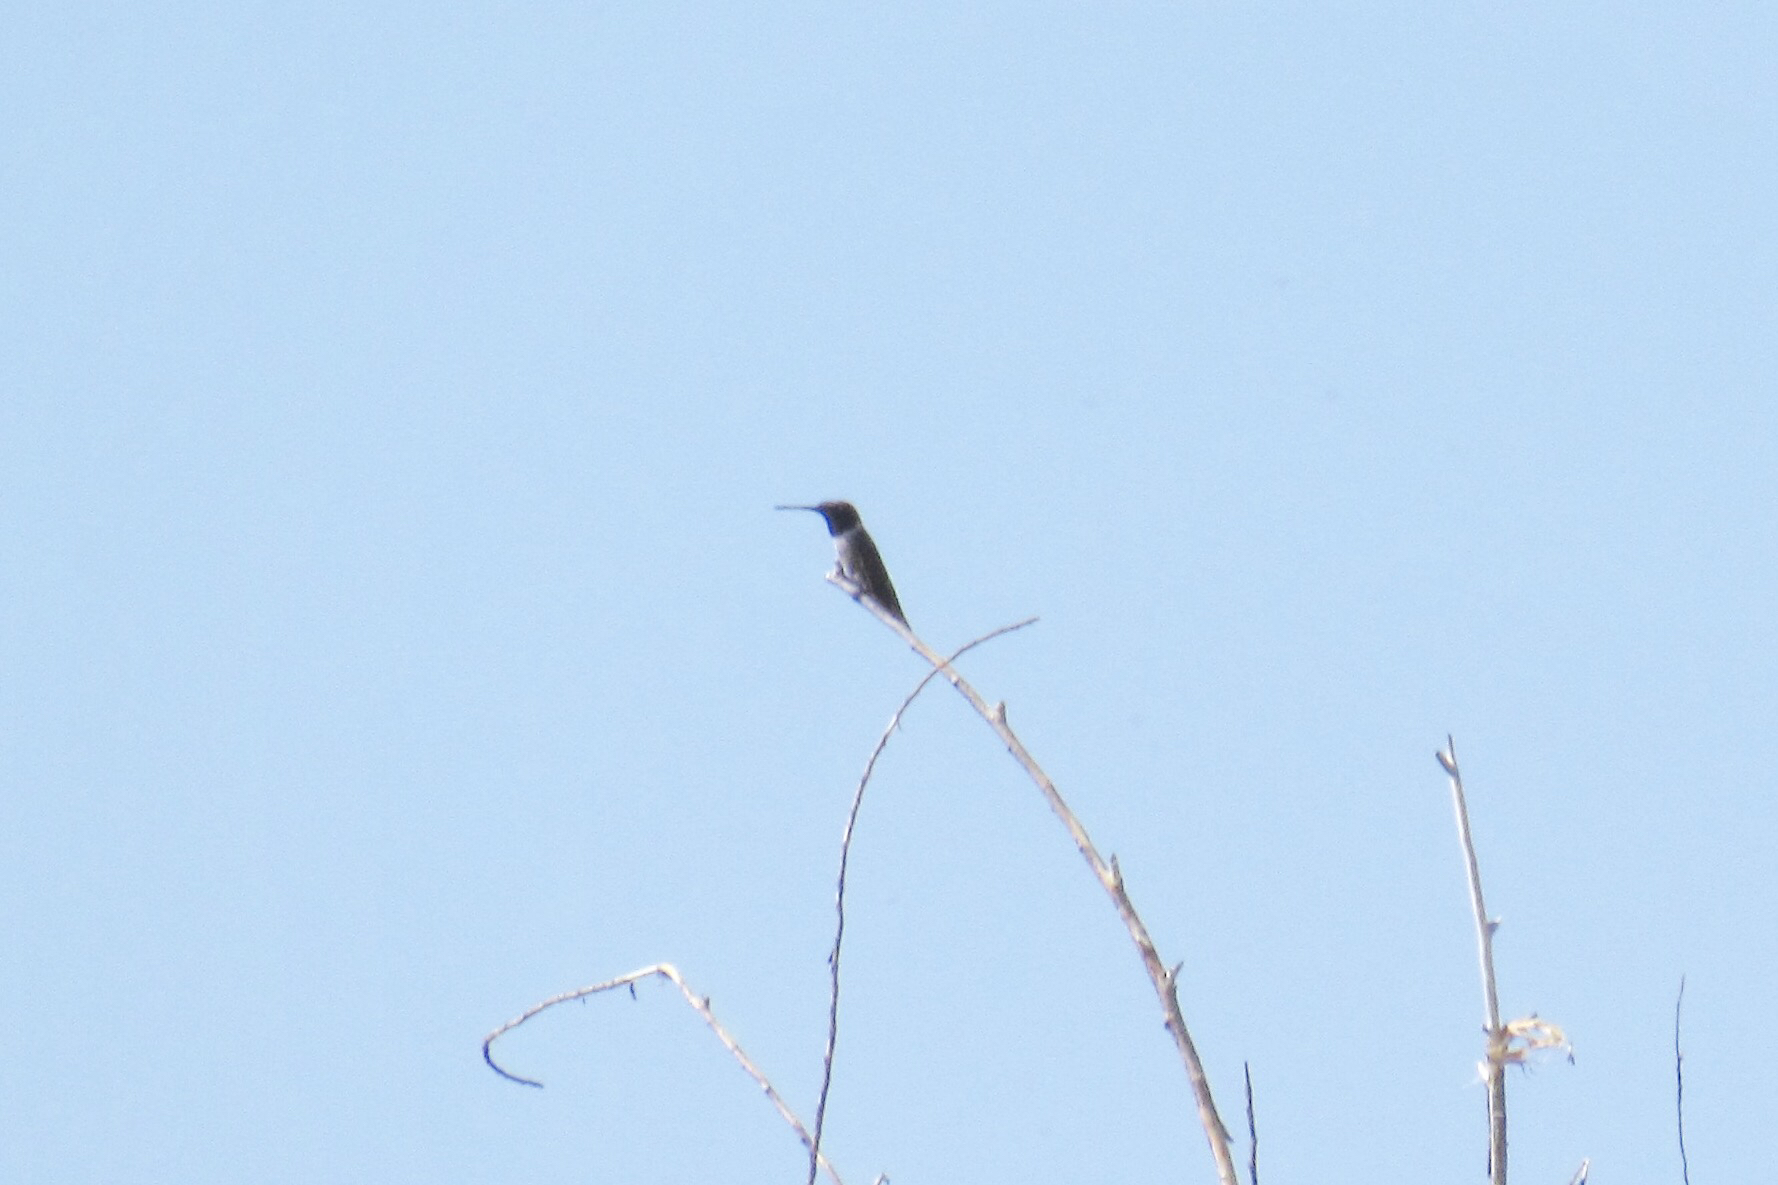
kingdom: Animalia
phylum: Chordata
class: Aves
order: Apodiformes
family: Trochilidae
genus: Archilochus
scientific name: Archilochus alexandri
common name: Black-chinned hummingbird
